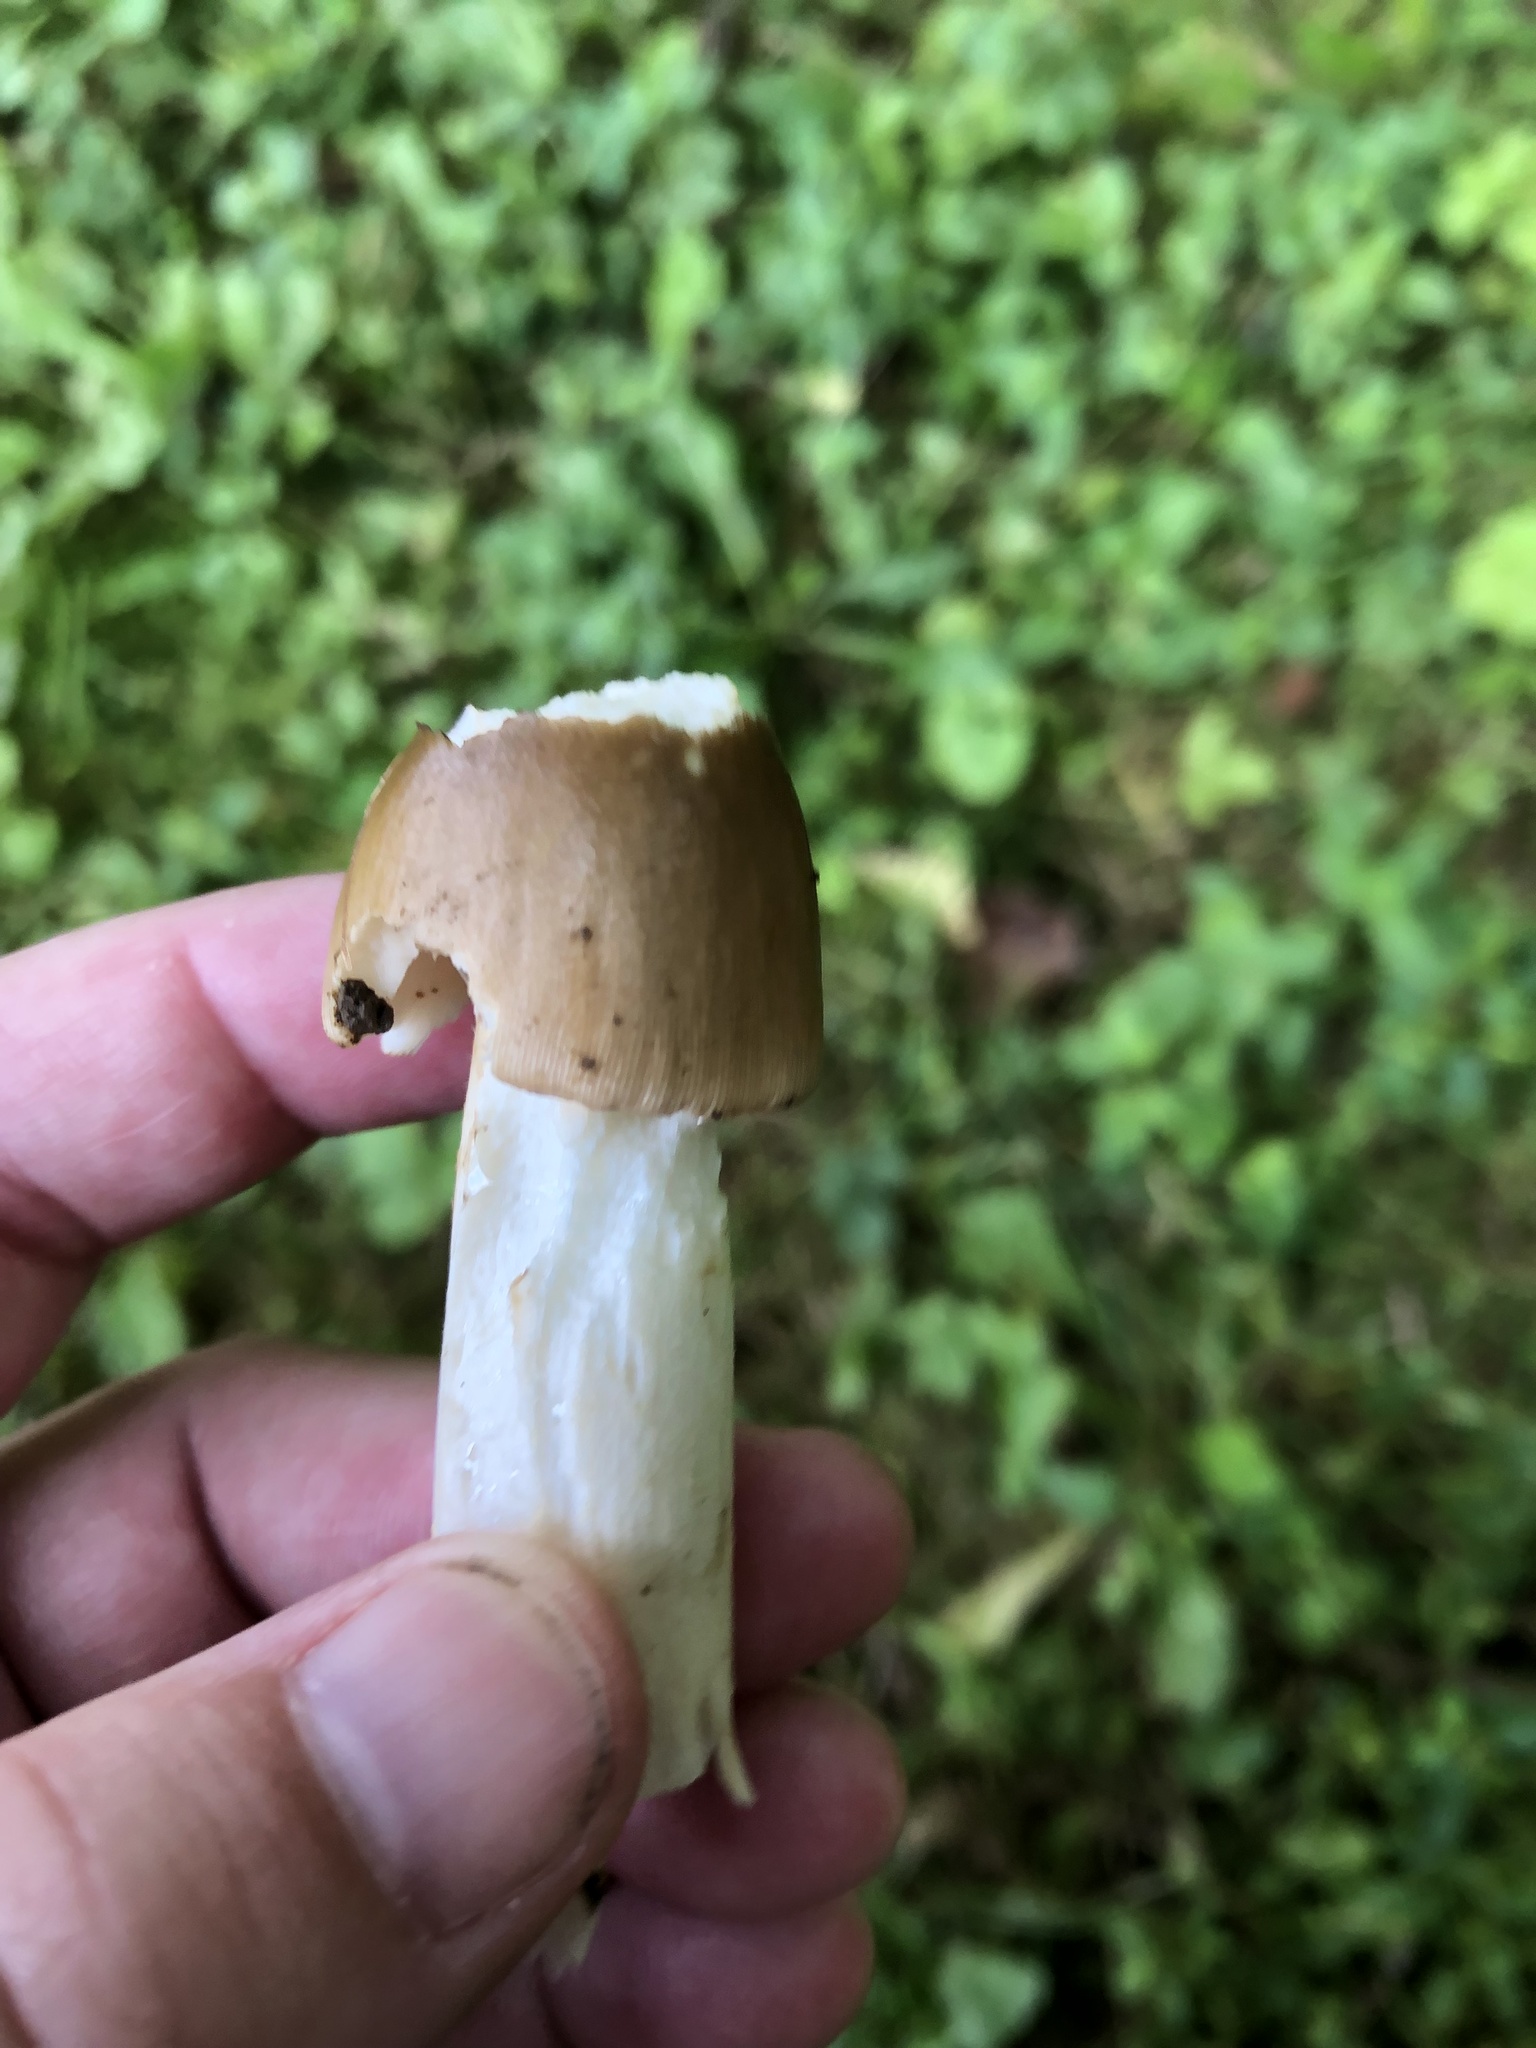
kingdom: Fungi
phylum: Basidiomycota
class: Agaricomycetes
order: Agaricales
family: Amanitaceae
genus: Amanita
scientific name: Amanita fulva
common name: Tawny grisette
